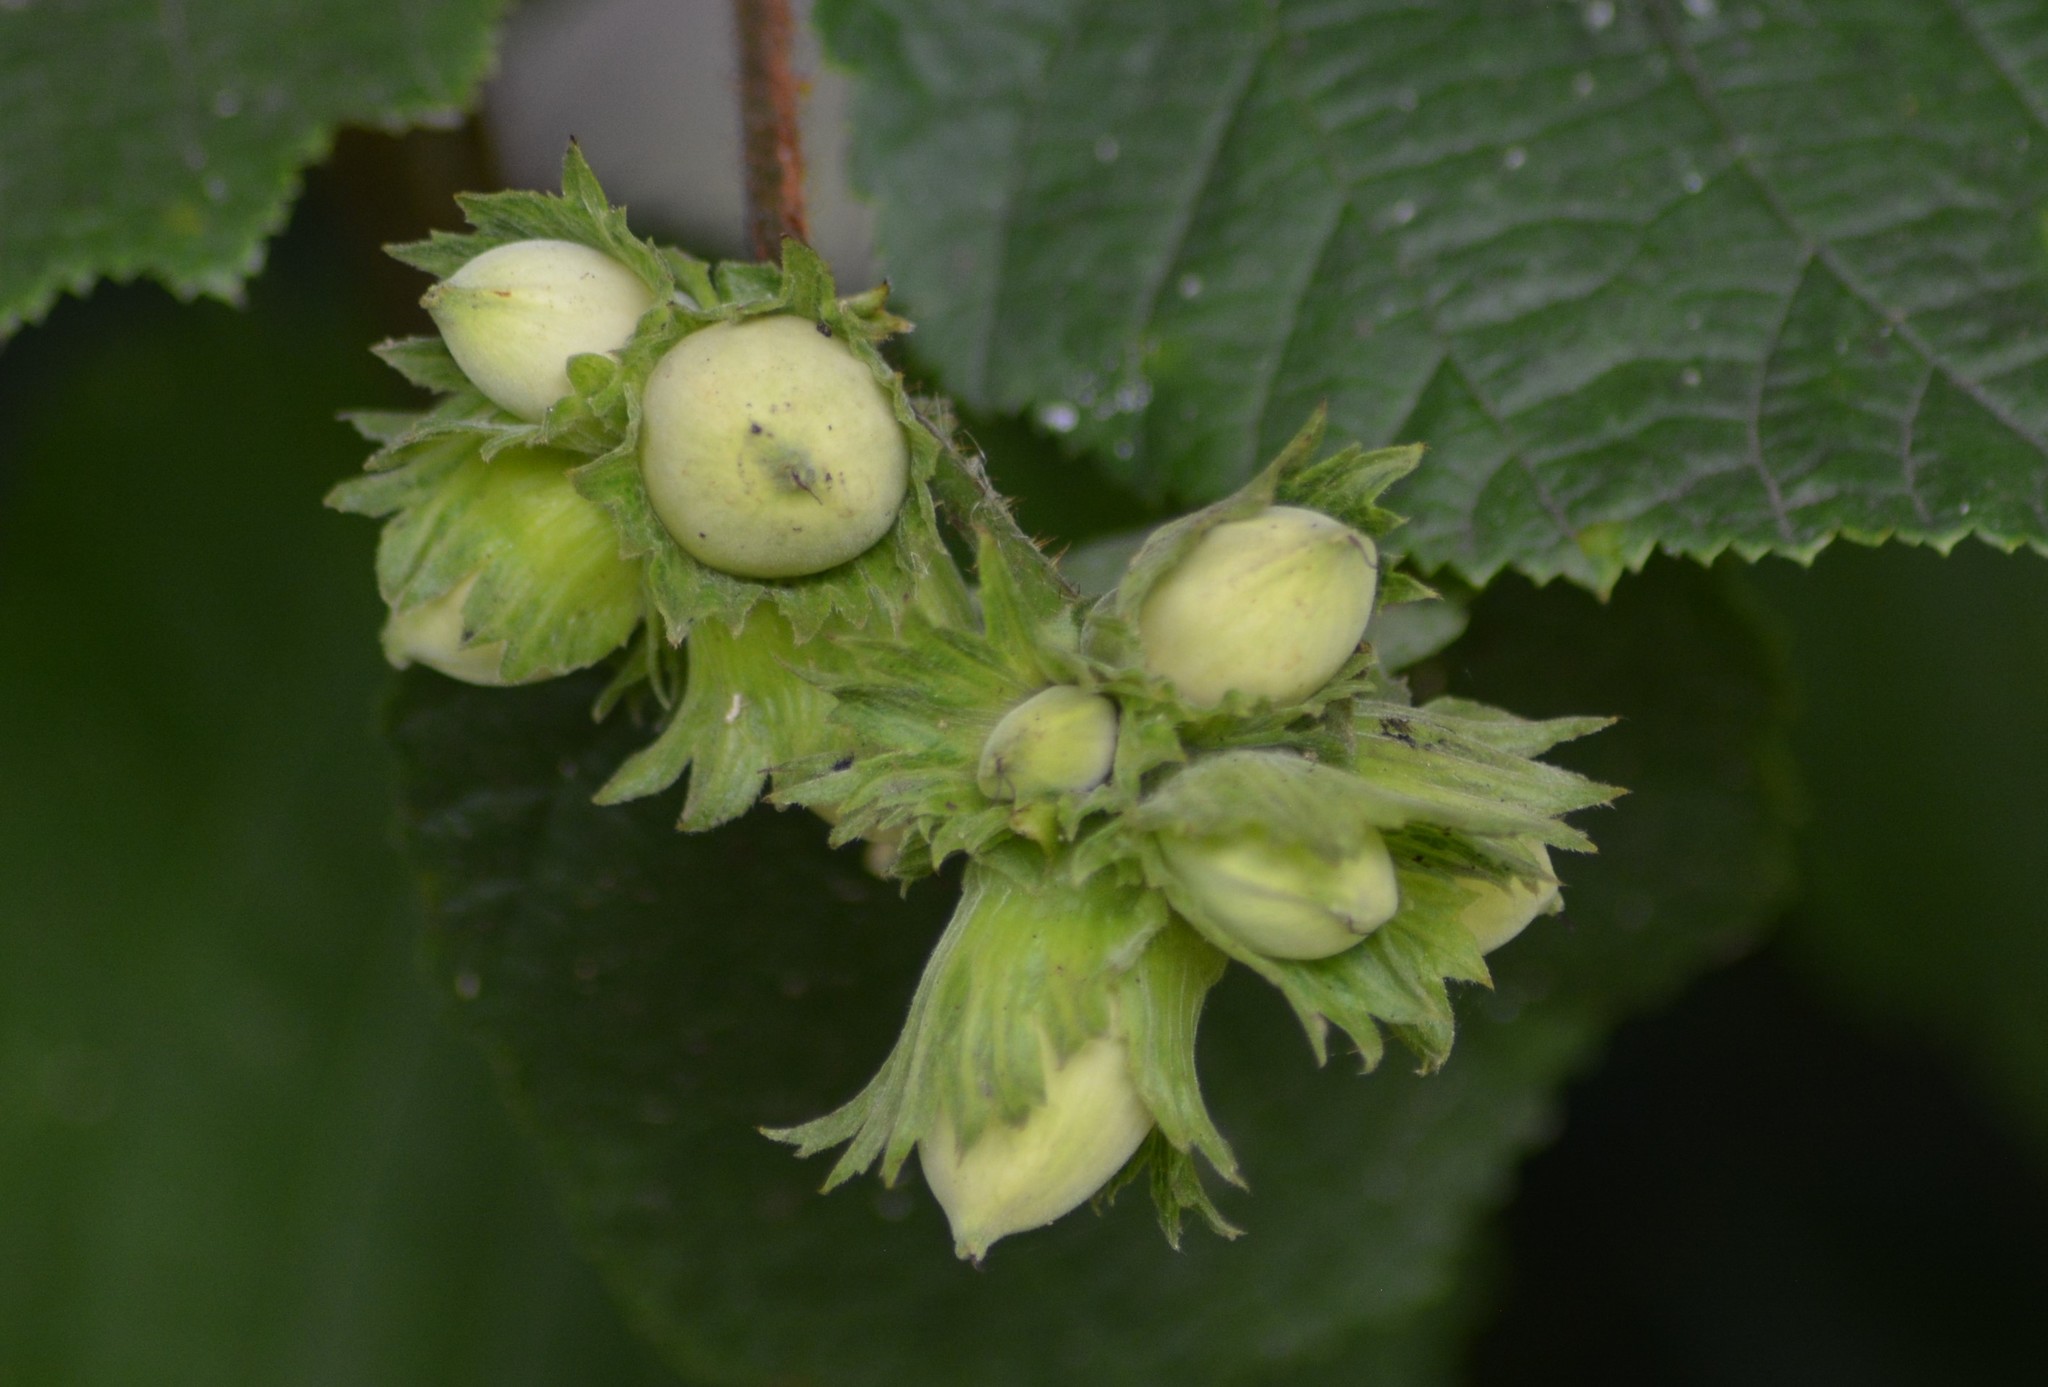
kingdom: Plantae
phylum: Tracheophyta
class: Magnoliopsida
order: Fagales
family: Betulaceae
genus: Corylus
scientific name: Corylus avellana
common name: European hazel
